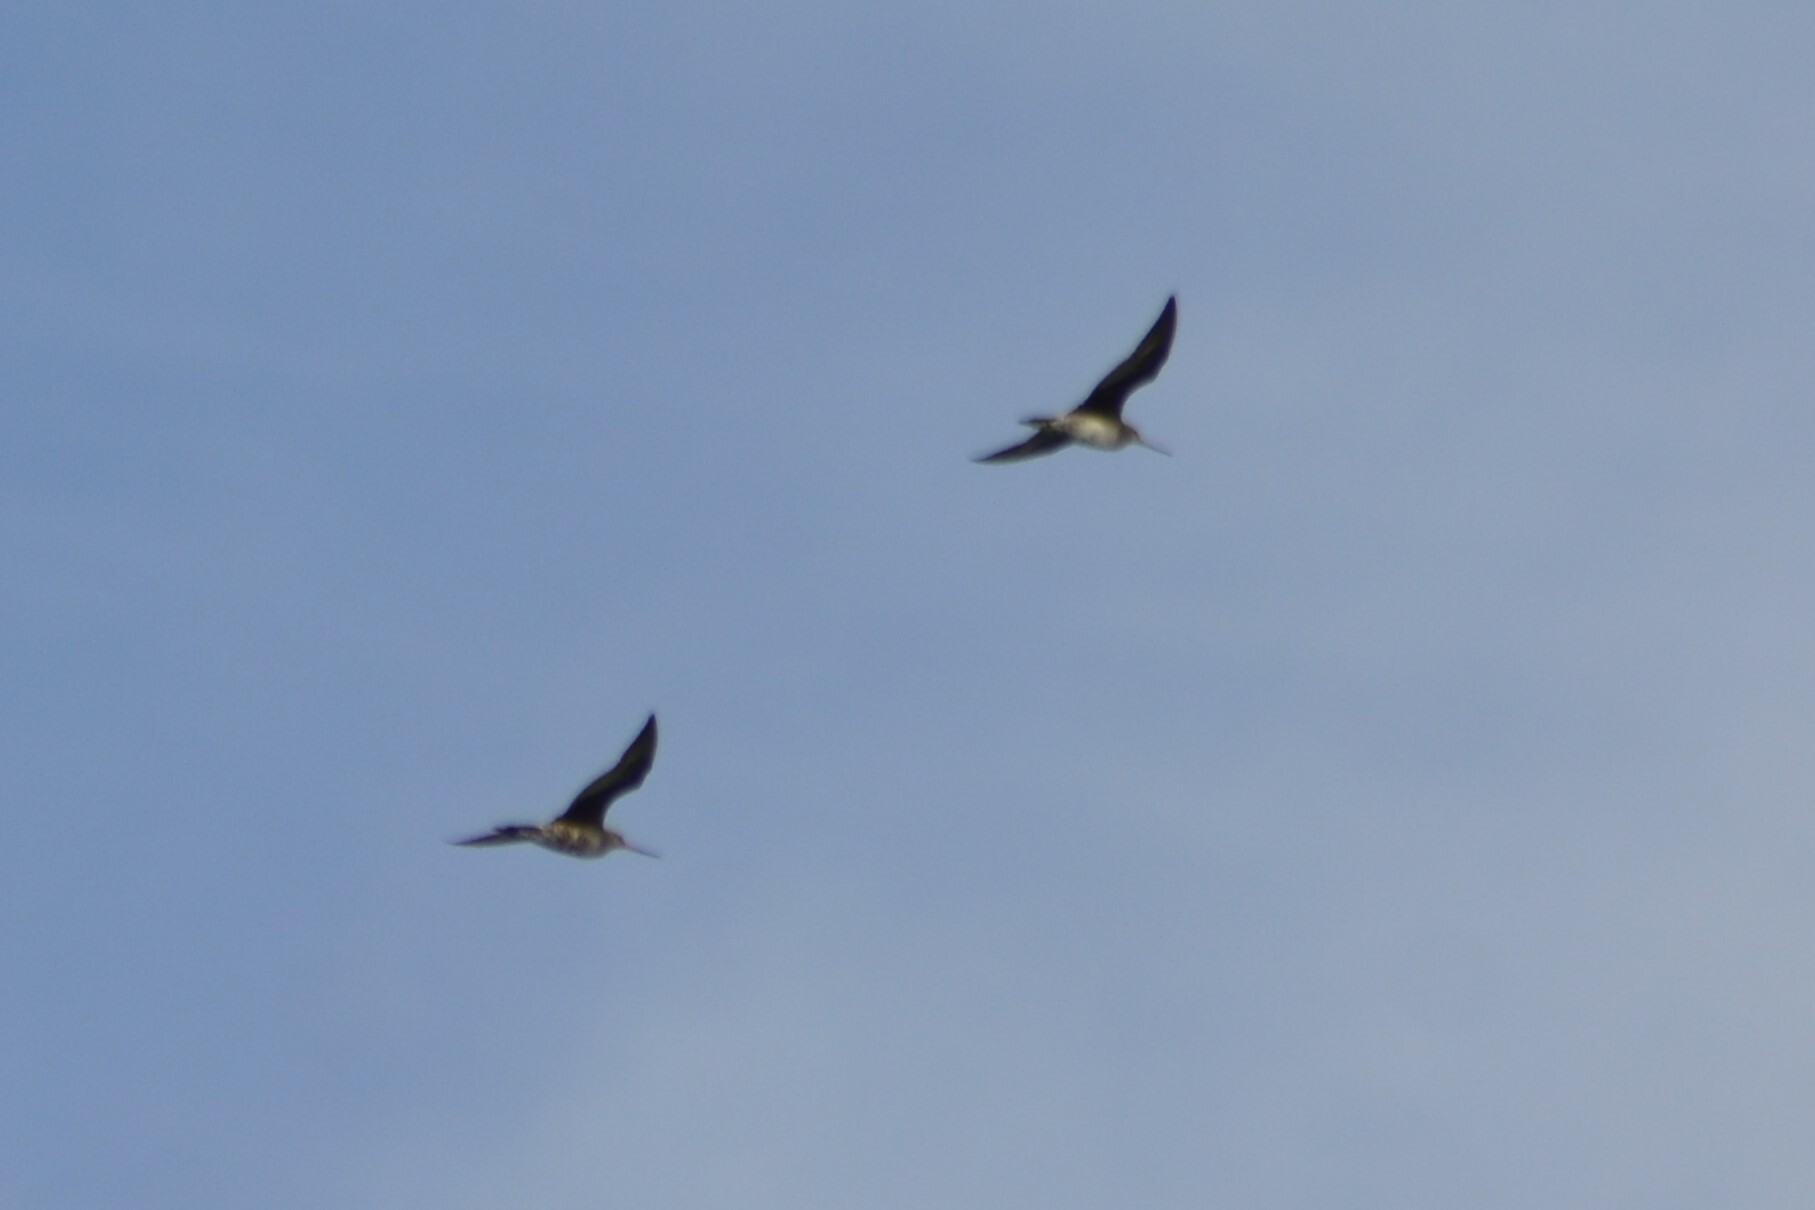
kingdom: Animalia
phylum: Chordata
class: Aves
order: Charadriiformes
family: Scolopacidae
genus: Limosa
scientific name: Limosa haemastica
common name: Hudsonian godwit
